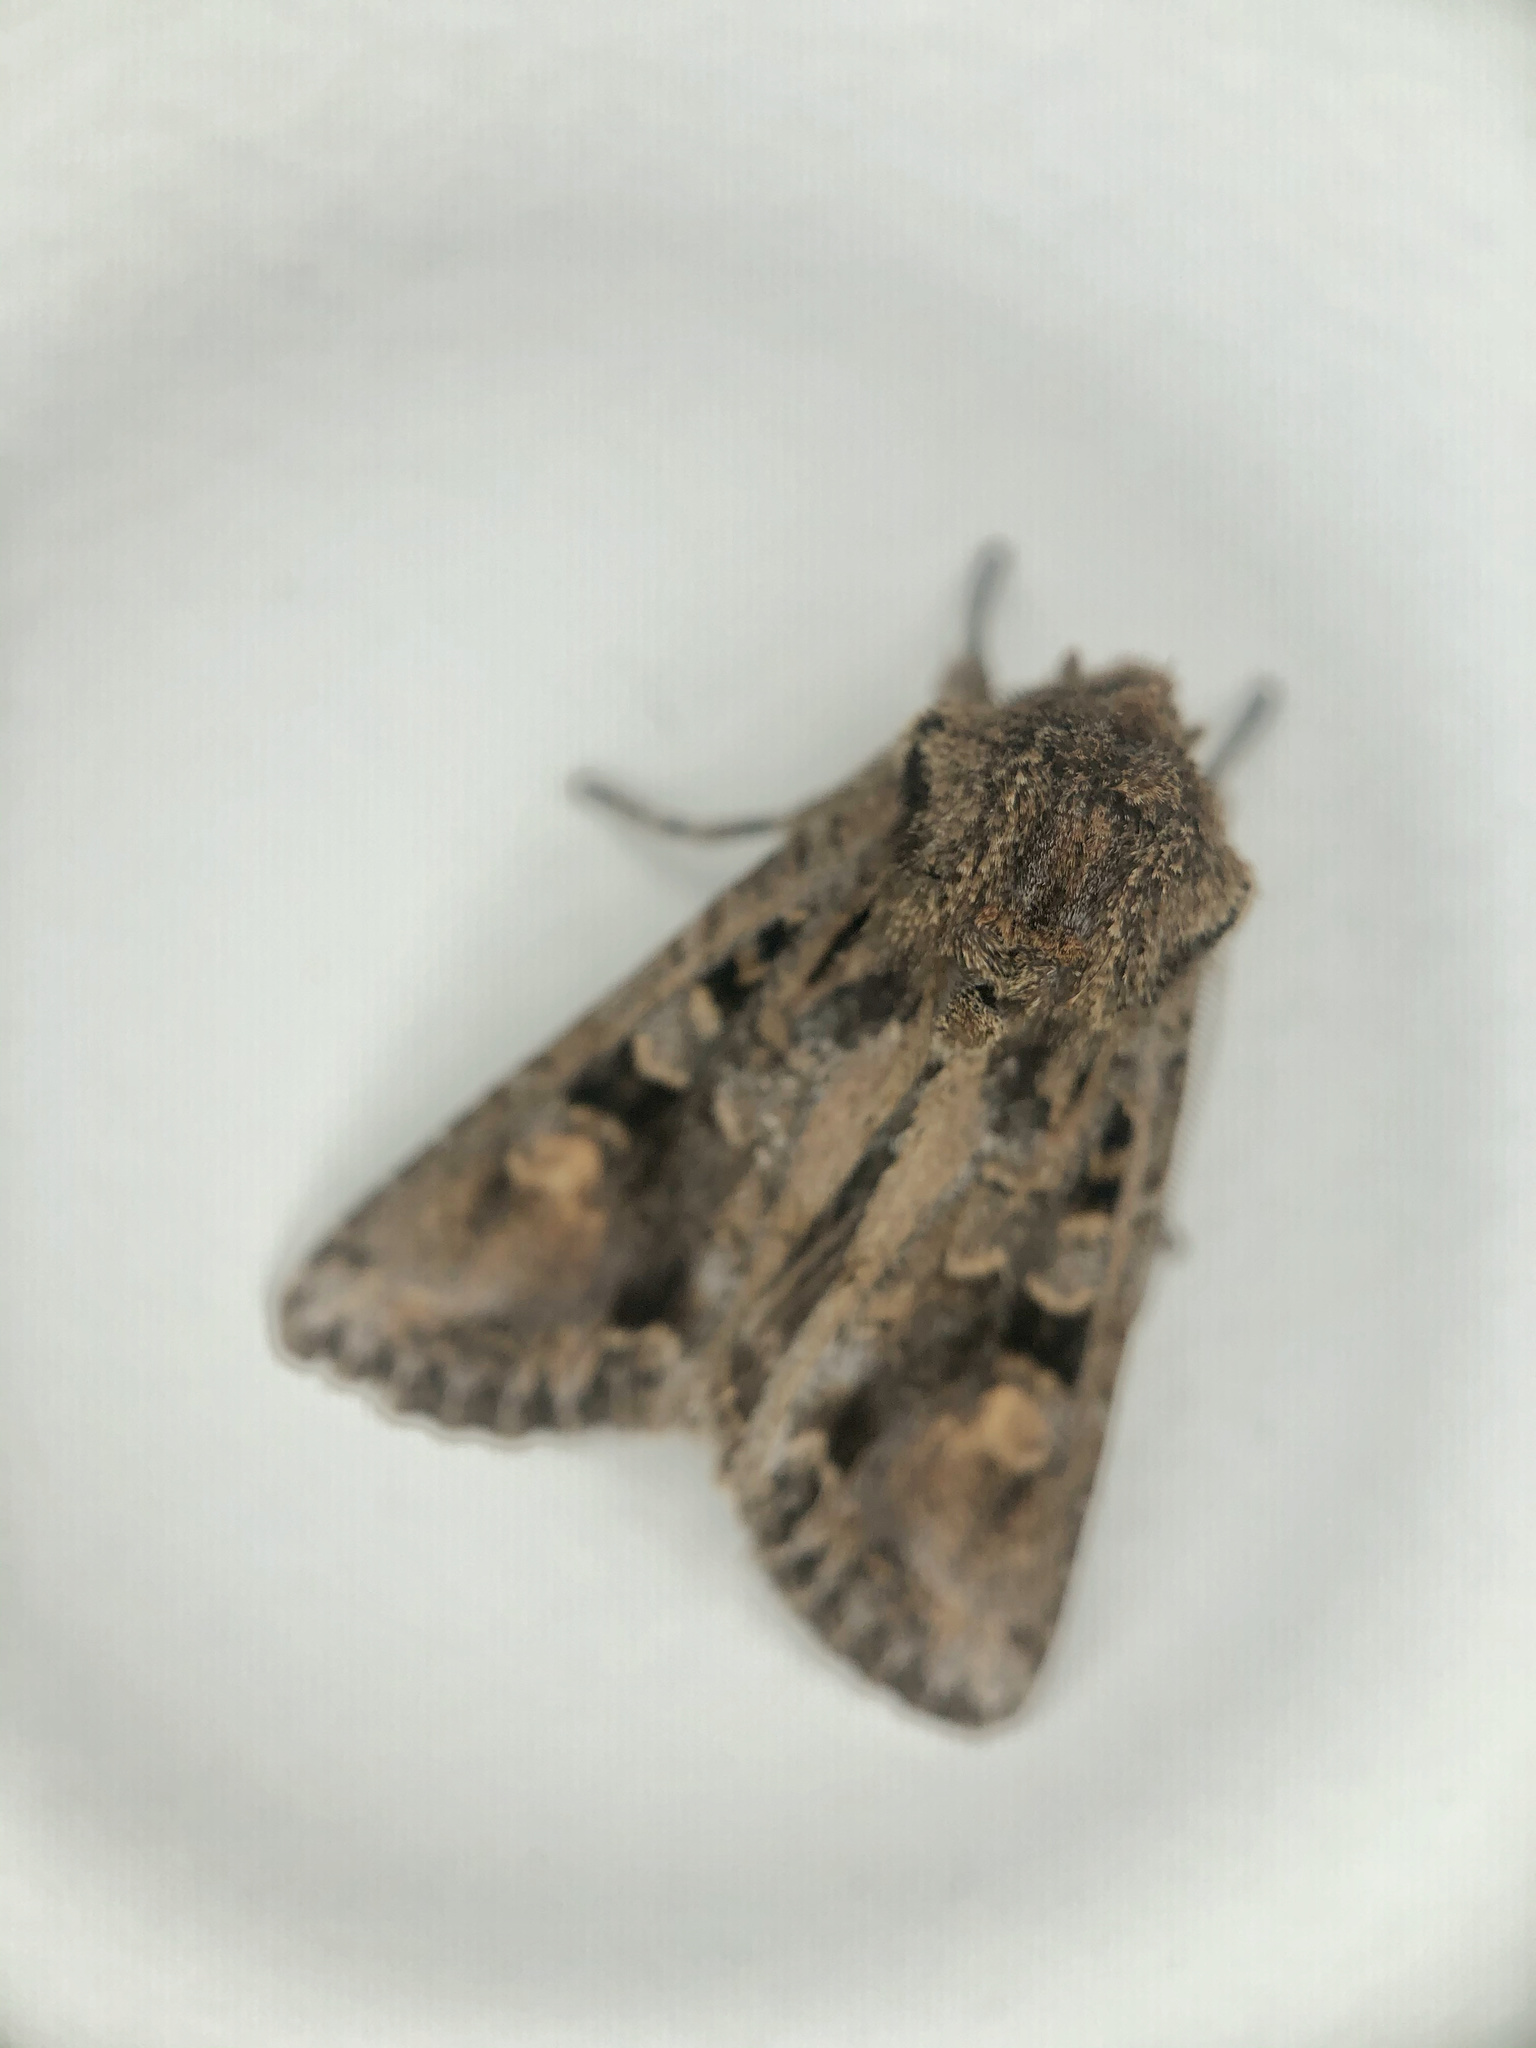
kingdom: Animalia
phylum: Arthropoda
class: Insecta
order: Lepidoptera
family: Noctuidae
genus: Ichneutica
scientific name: Ichneutica
